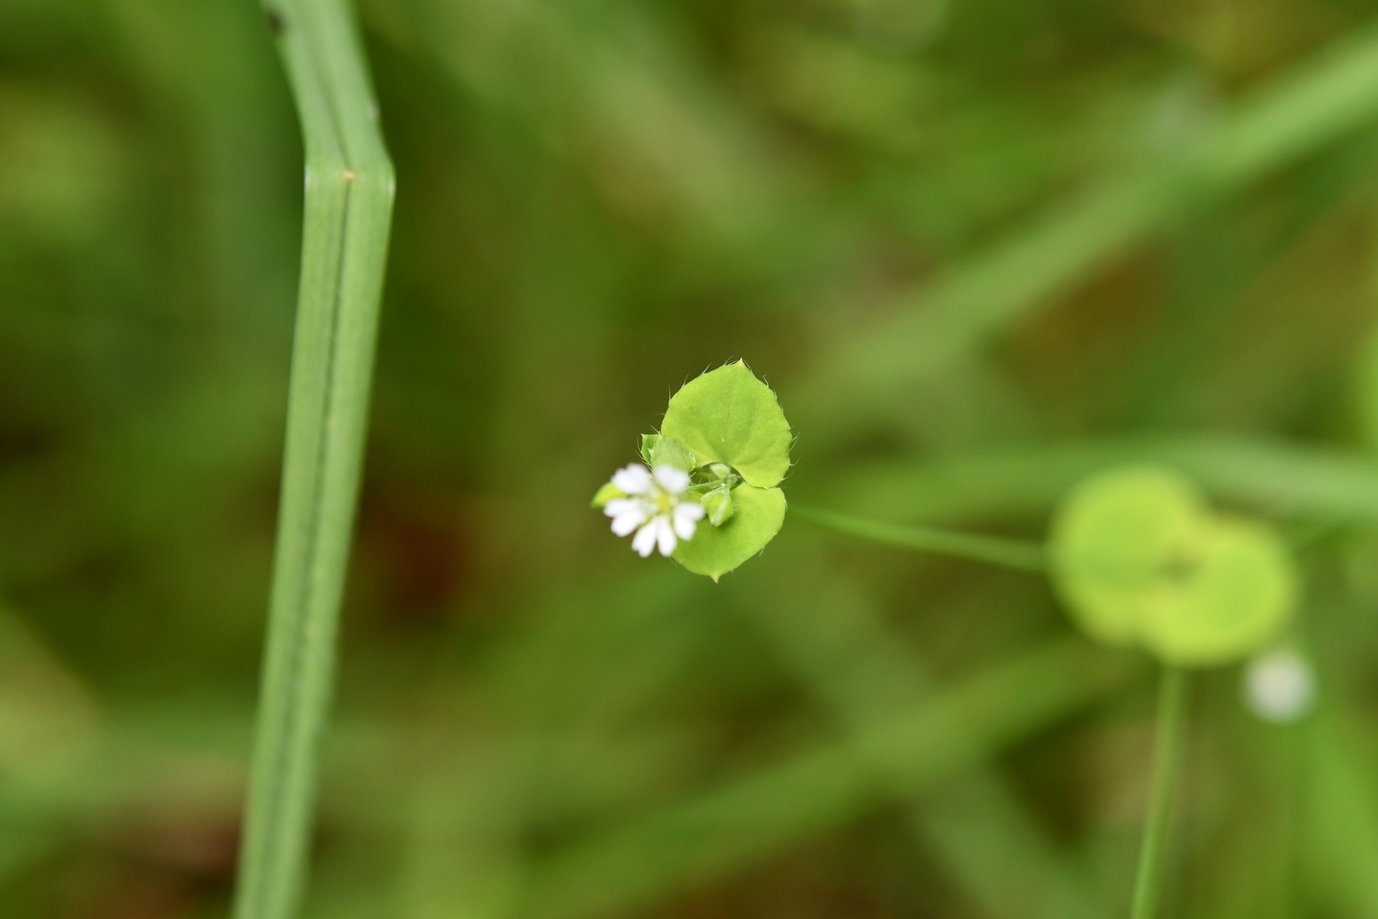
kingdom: Plantae
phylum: Tracheophyta
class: Magnoliopsida
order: Caryophyllales
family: Caryophyllaceae
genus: Drymaria
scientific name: Drymaria villosa
